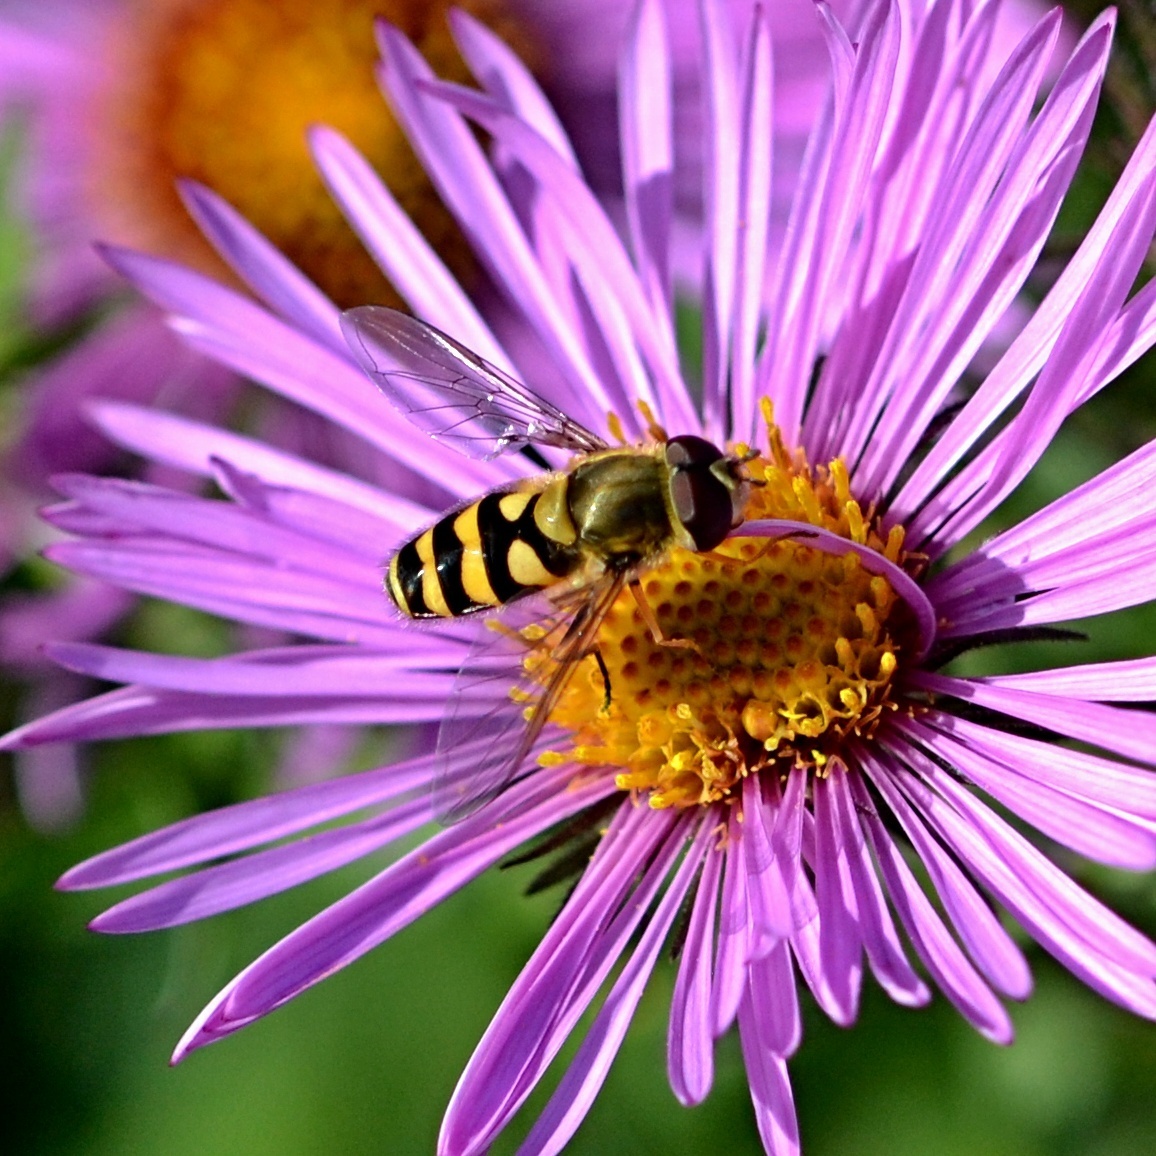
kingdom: Animalia
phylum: Arthropoda
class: Insecta
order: Diptera
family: Syrphidae
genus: Syrphus
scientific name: Syrphus
